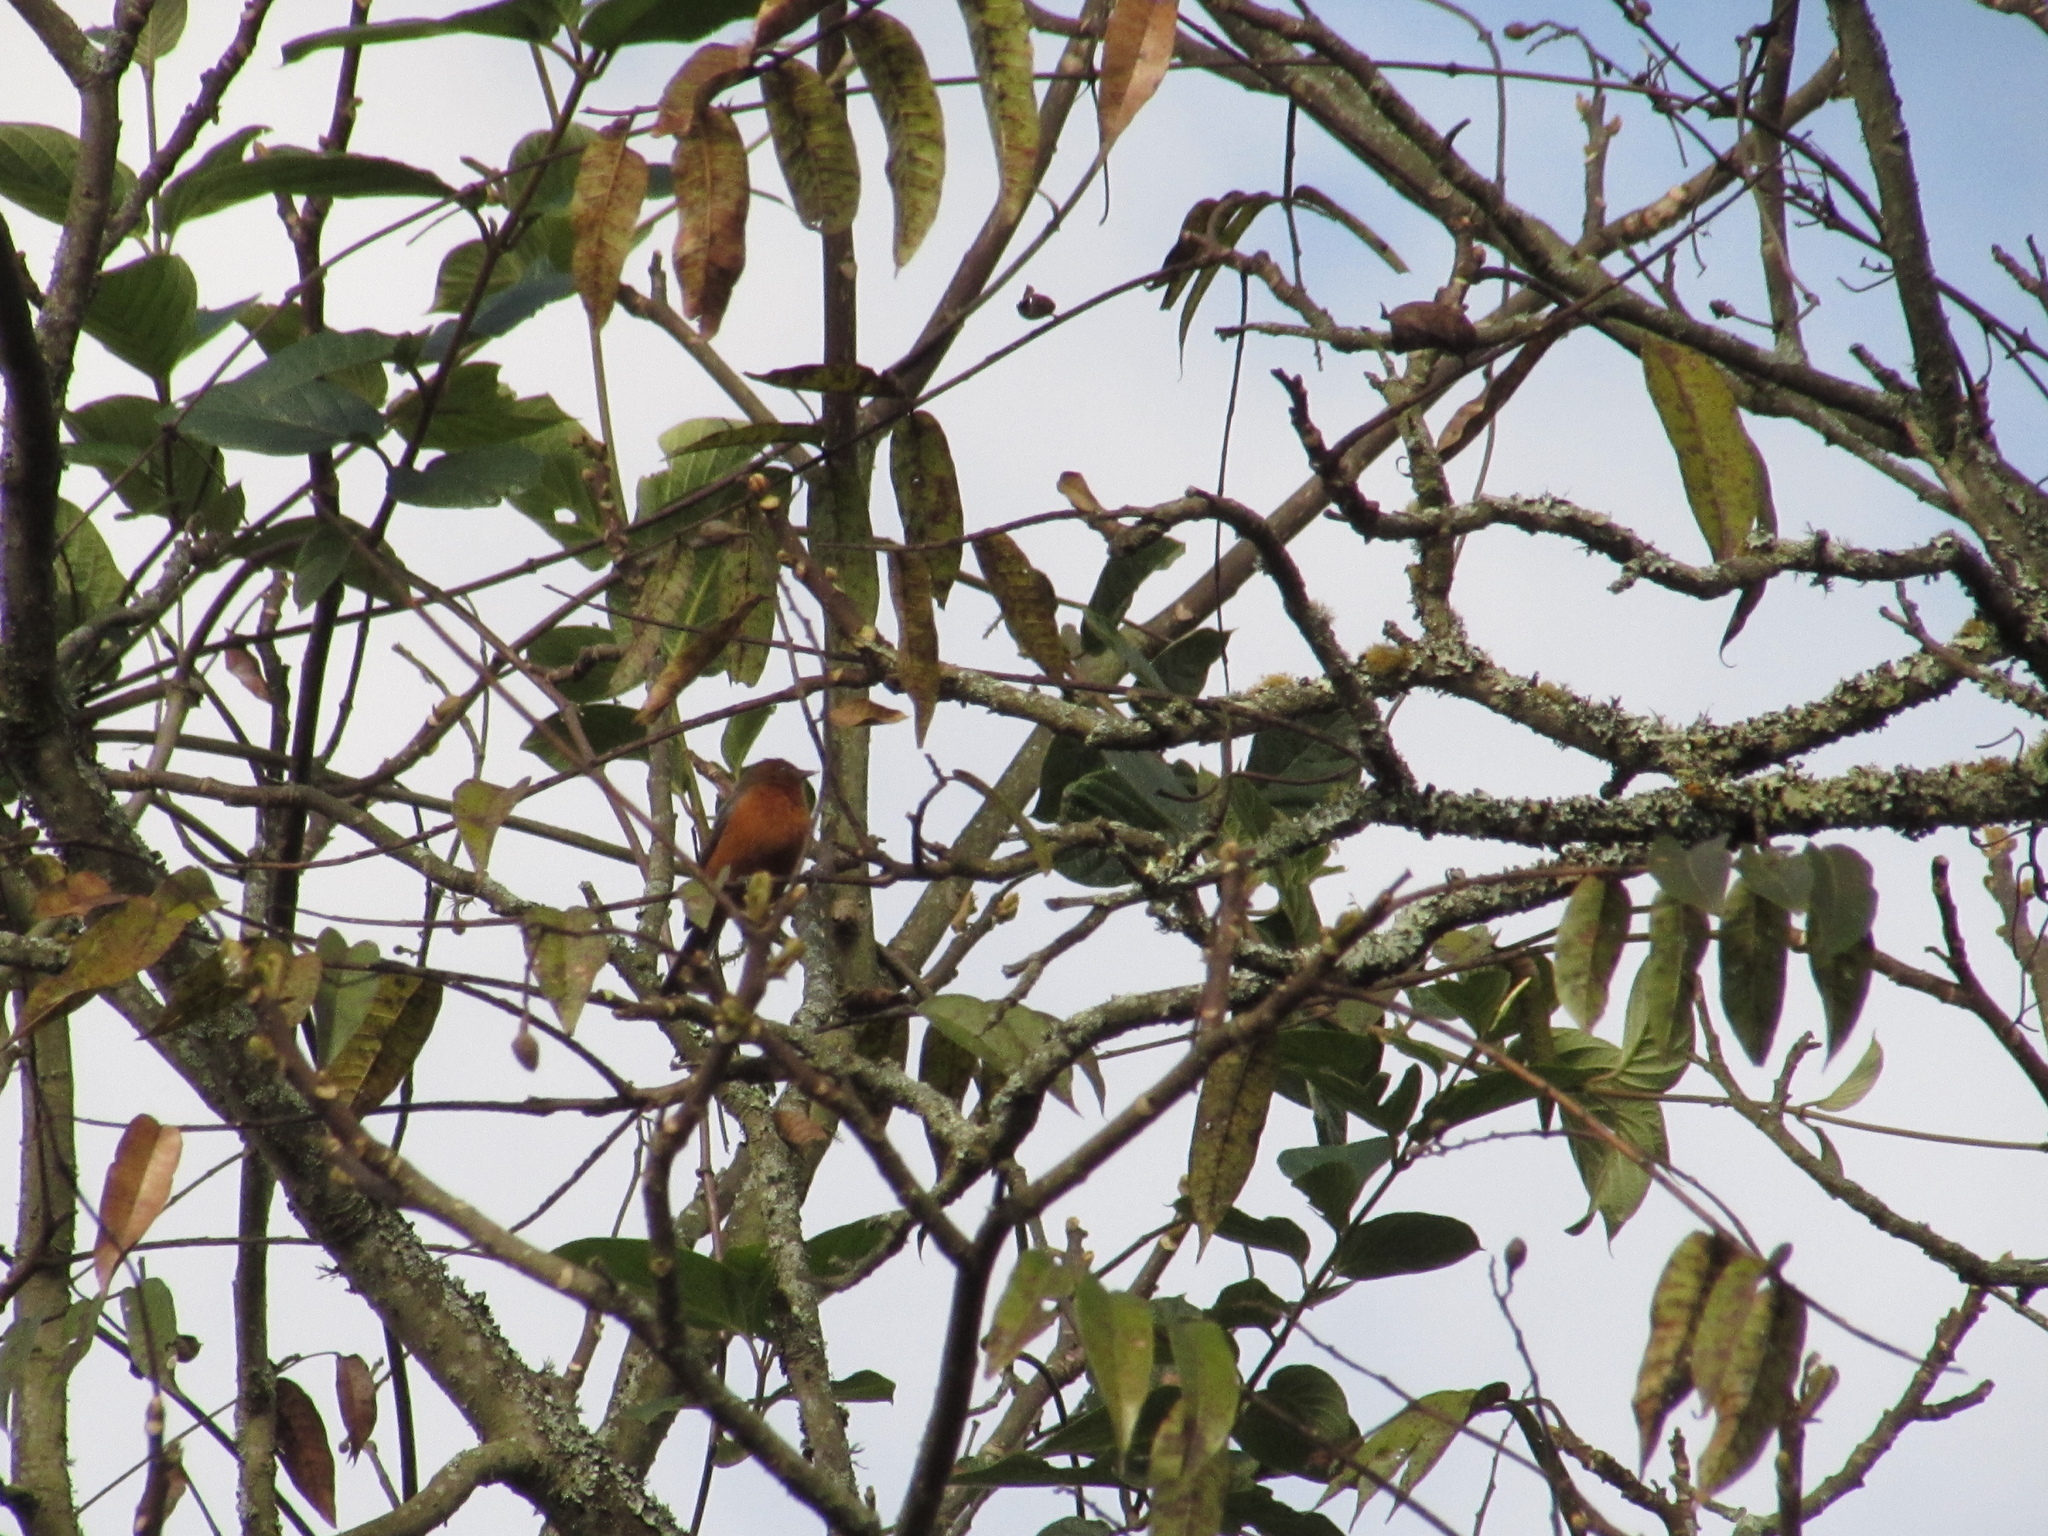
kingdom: Animalia
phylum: Chordata
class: Aves
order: Passeriformes
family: Thraupidae
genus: Conirostrum
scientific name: Conirostrum rufum
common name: Rufous-browed conebill
